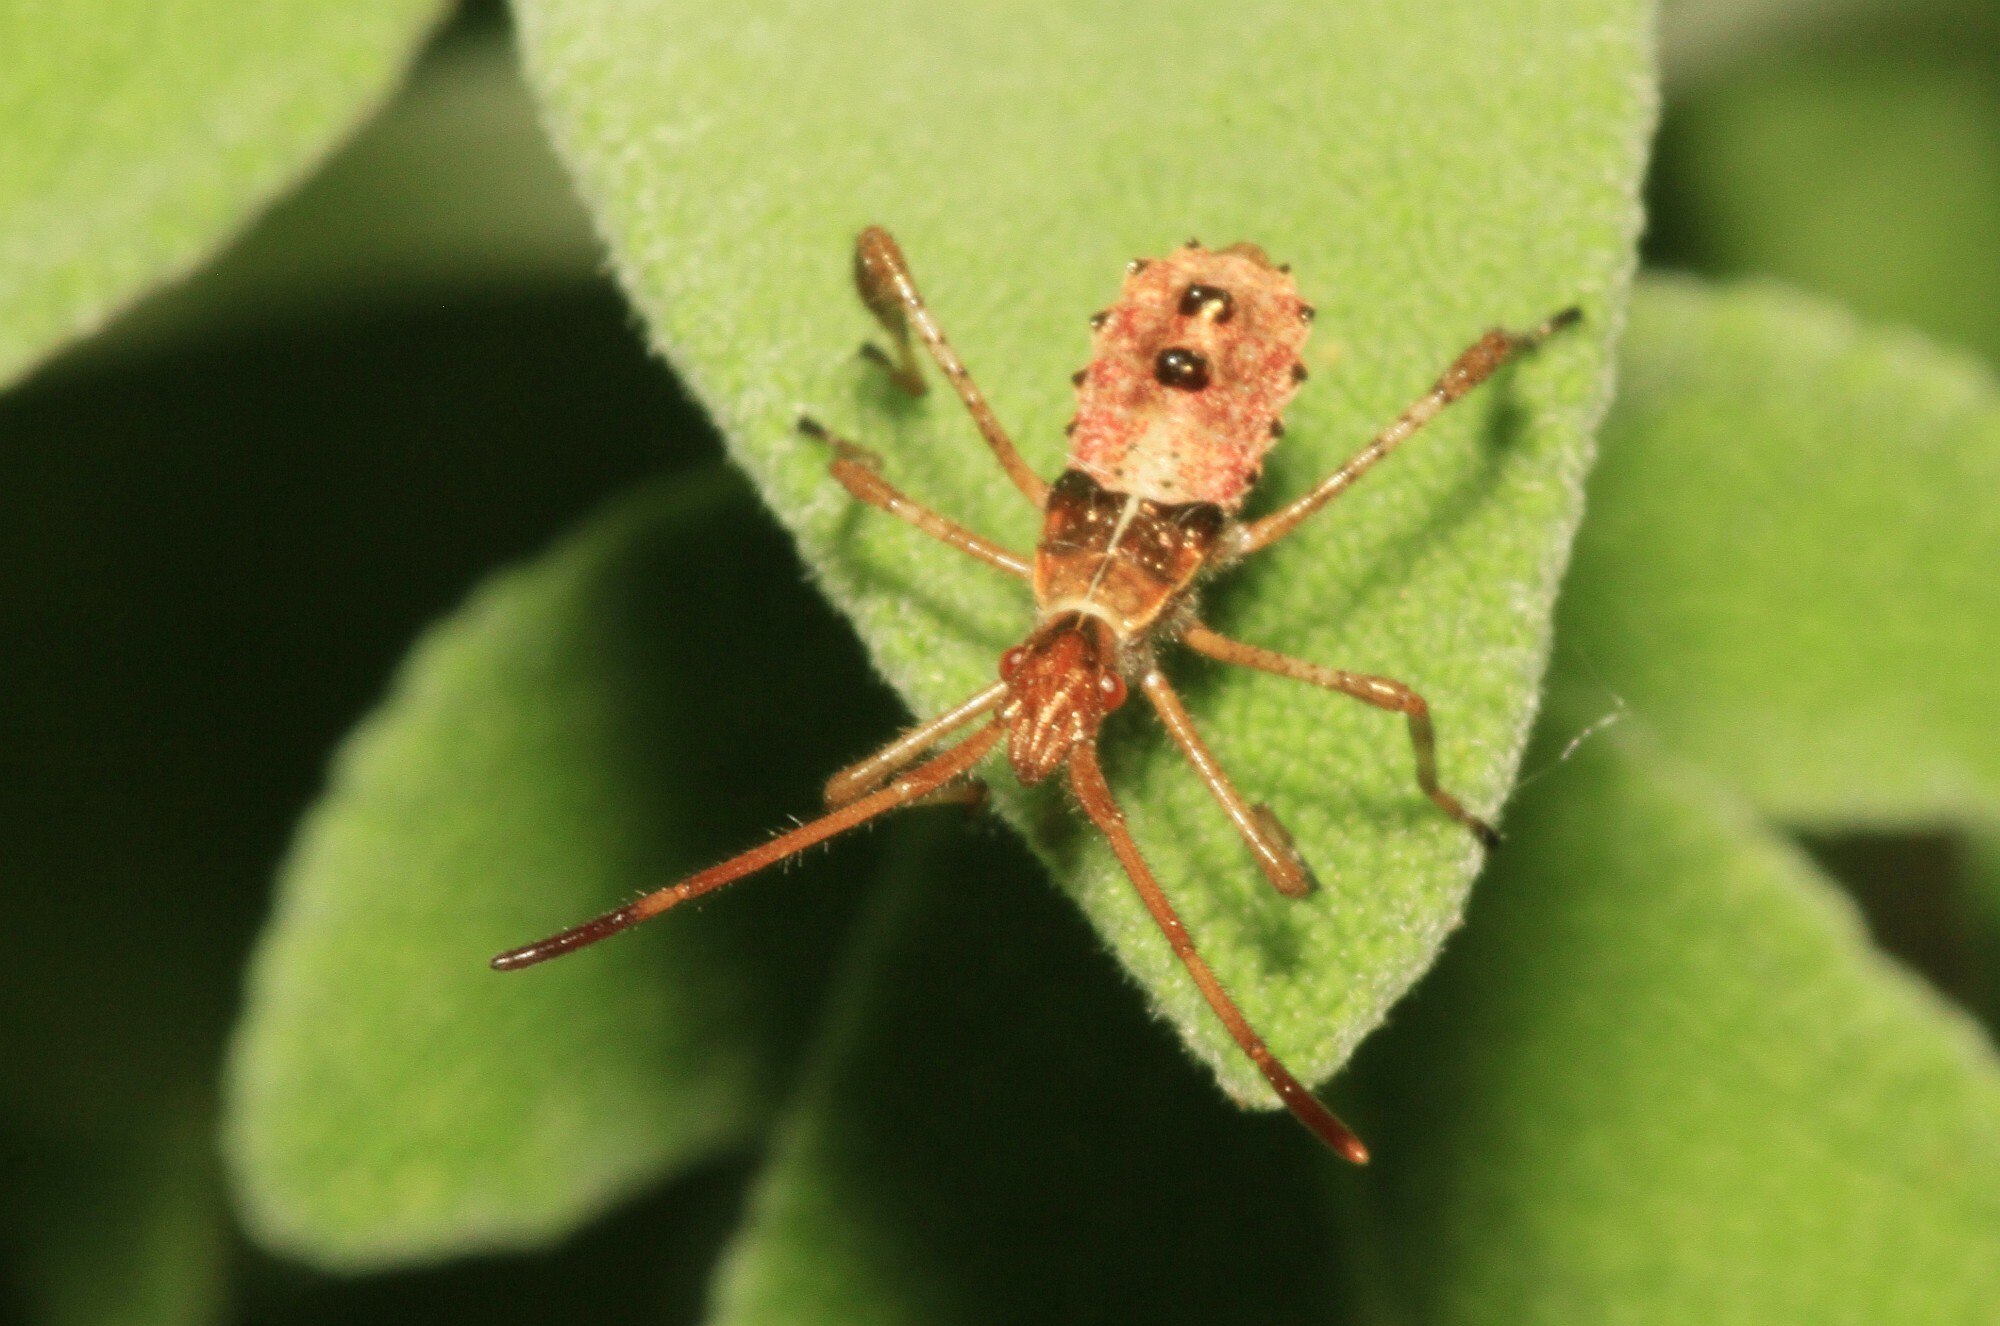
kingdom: Animalia
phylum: Arthropoda
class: Insecta
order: Hemiptera
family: Coreidae
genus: Leptoglossus
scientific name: Leptoglossus occidentalis
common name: Western conifer-seed bug
